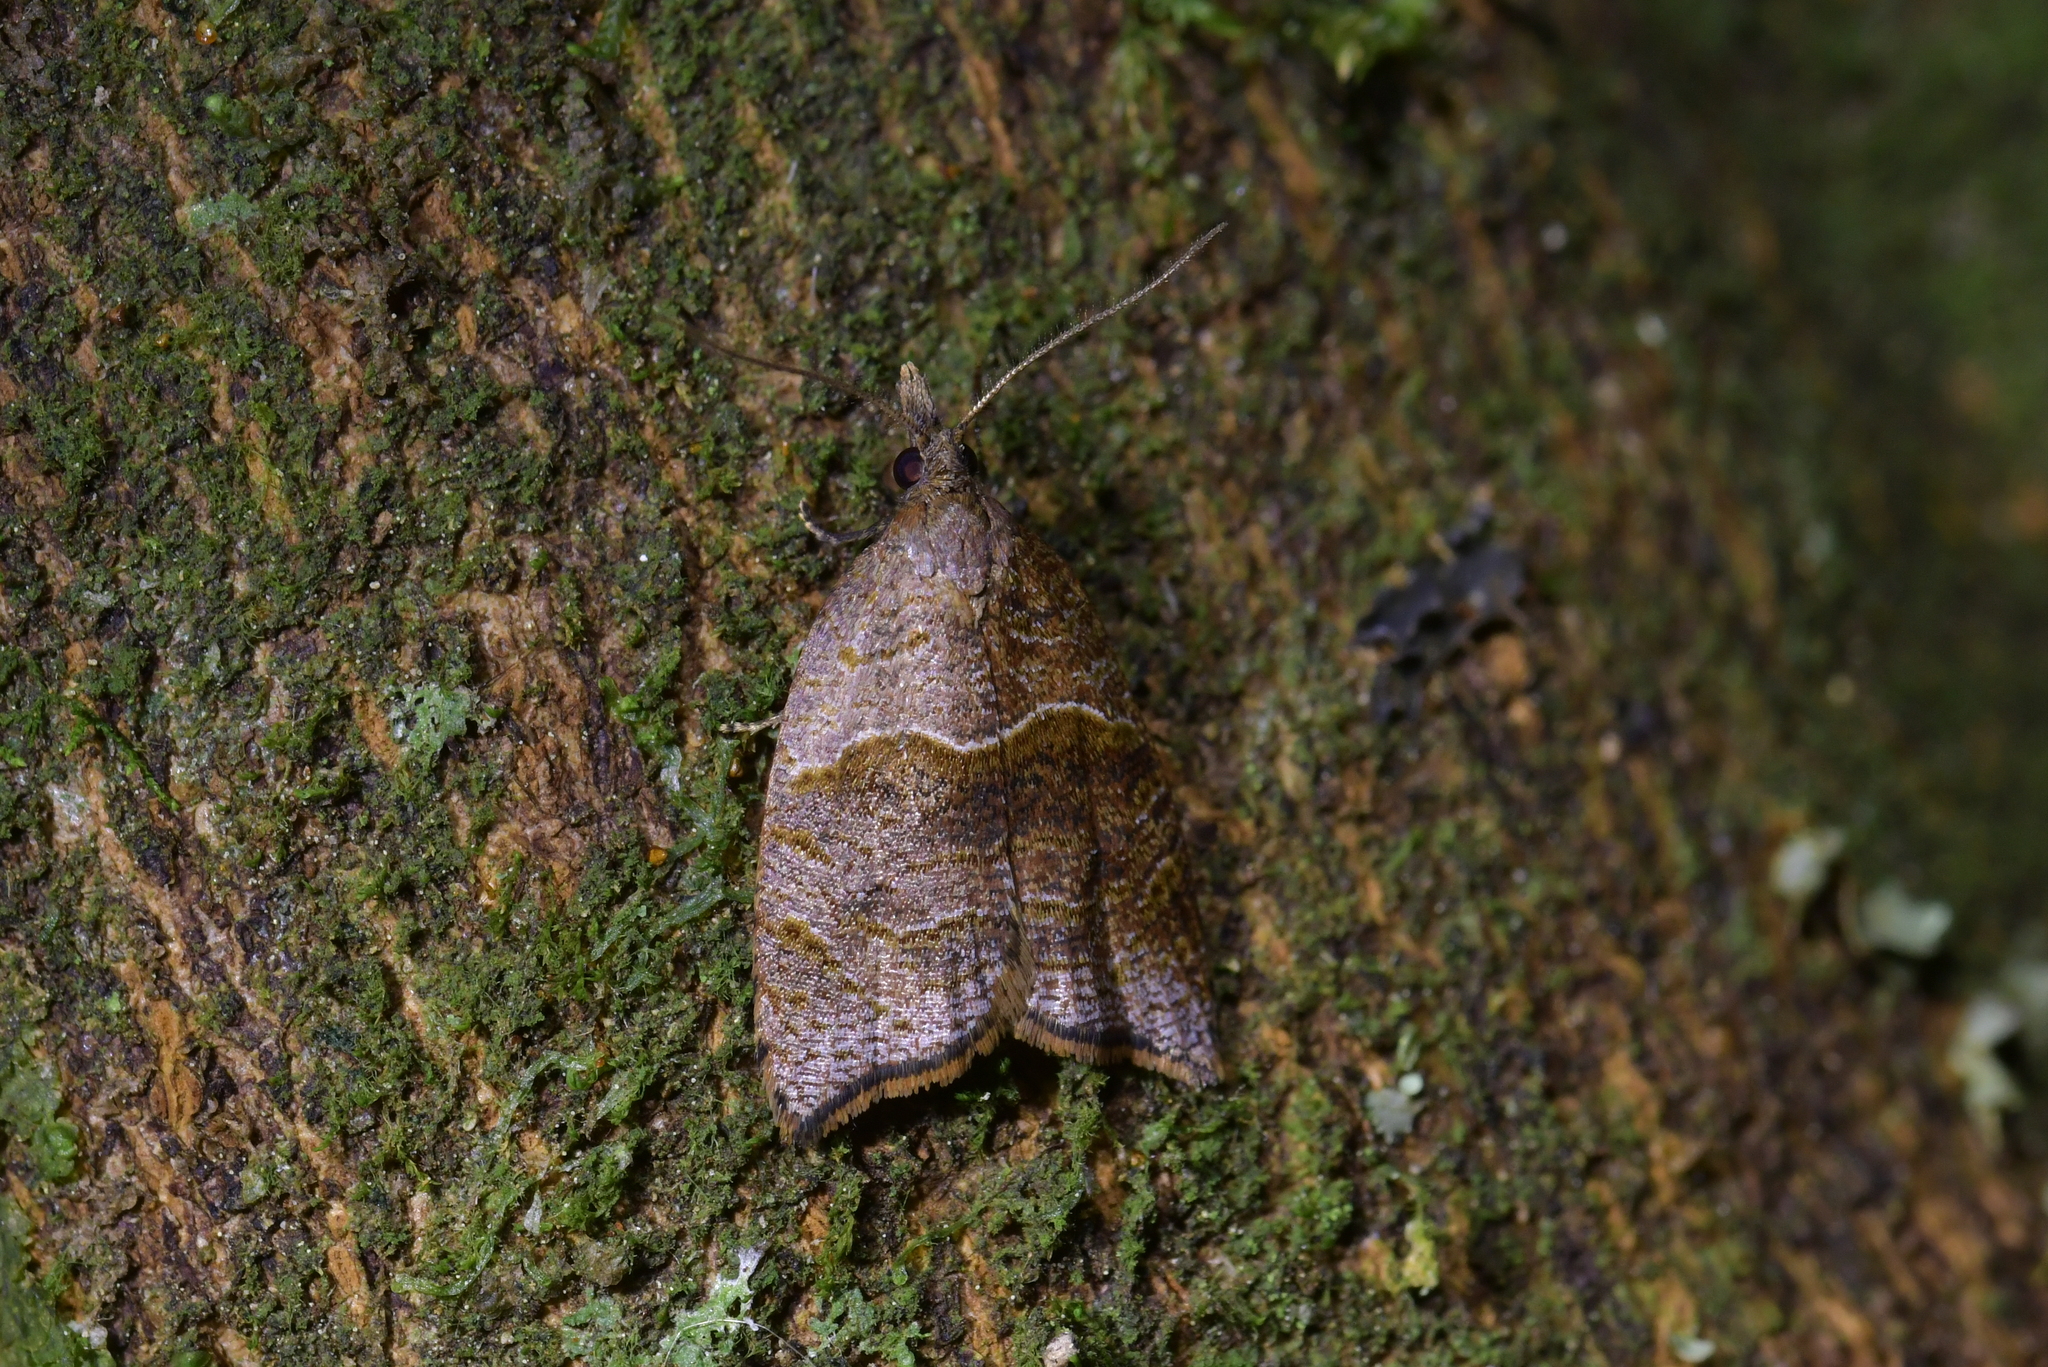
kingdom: Animalia
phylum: Arthropoda
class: Insecta
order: Lepidoptera
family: Tortricidae
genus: Cnephasia
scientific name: Cnephasia incertana
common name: Light grey tortrix
